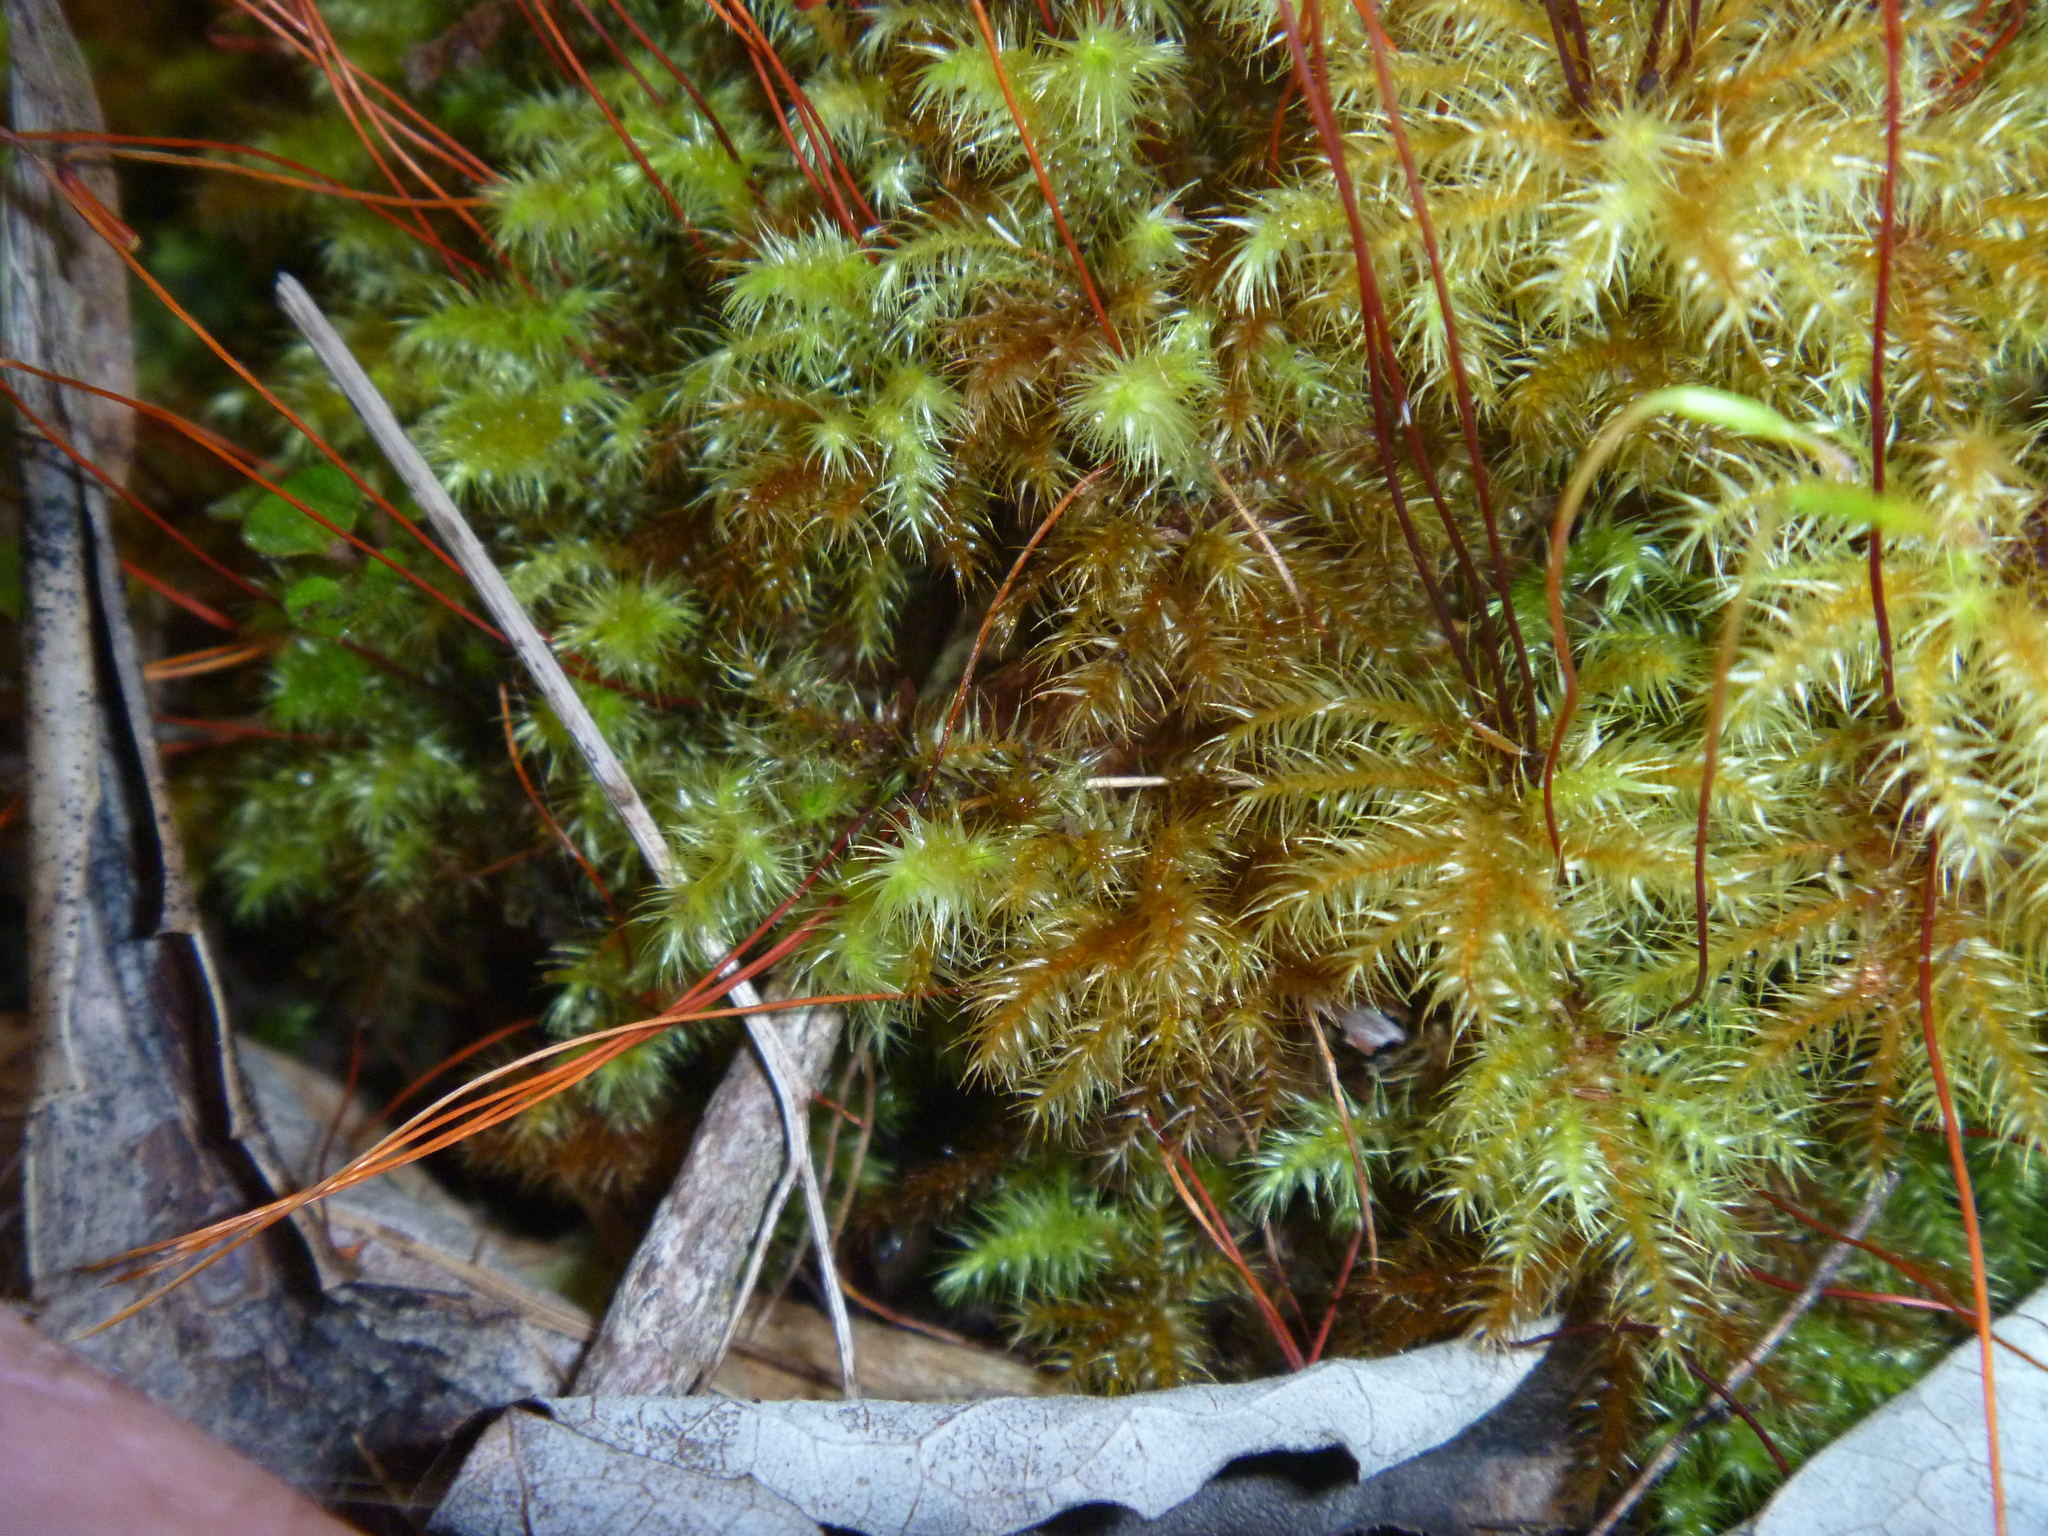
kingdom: Plantae
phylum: Bryophyta
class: Bryopsida
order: Hypnodendrales
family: Spiridentaceae
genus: Mniodendron
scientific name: Mniodendron colensoi
